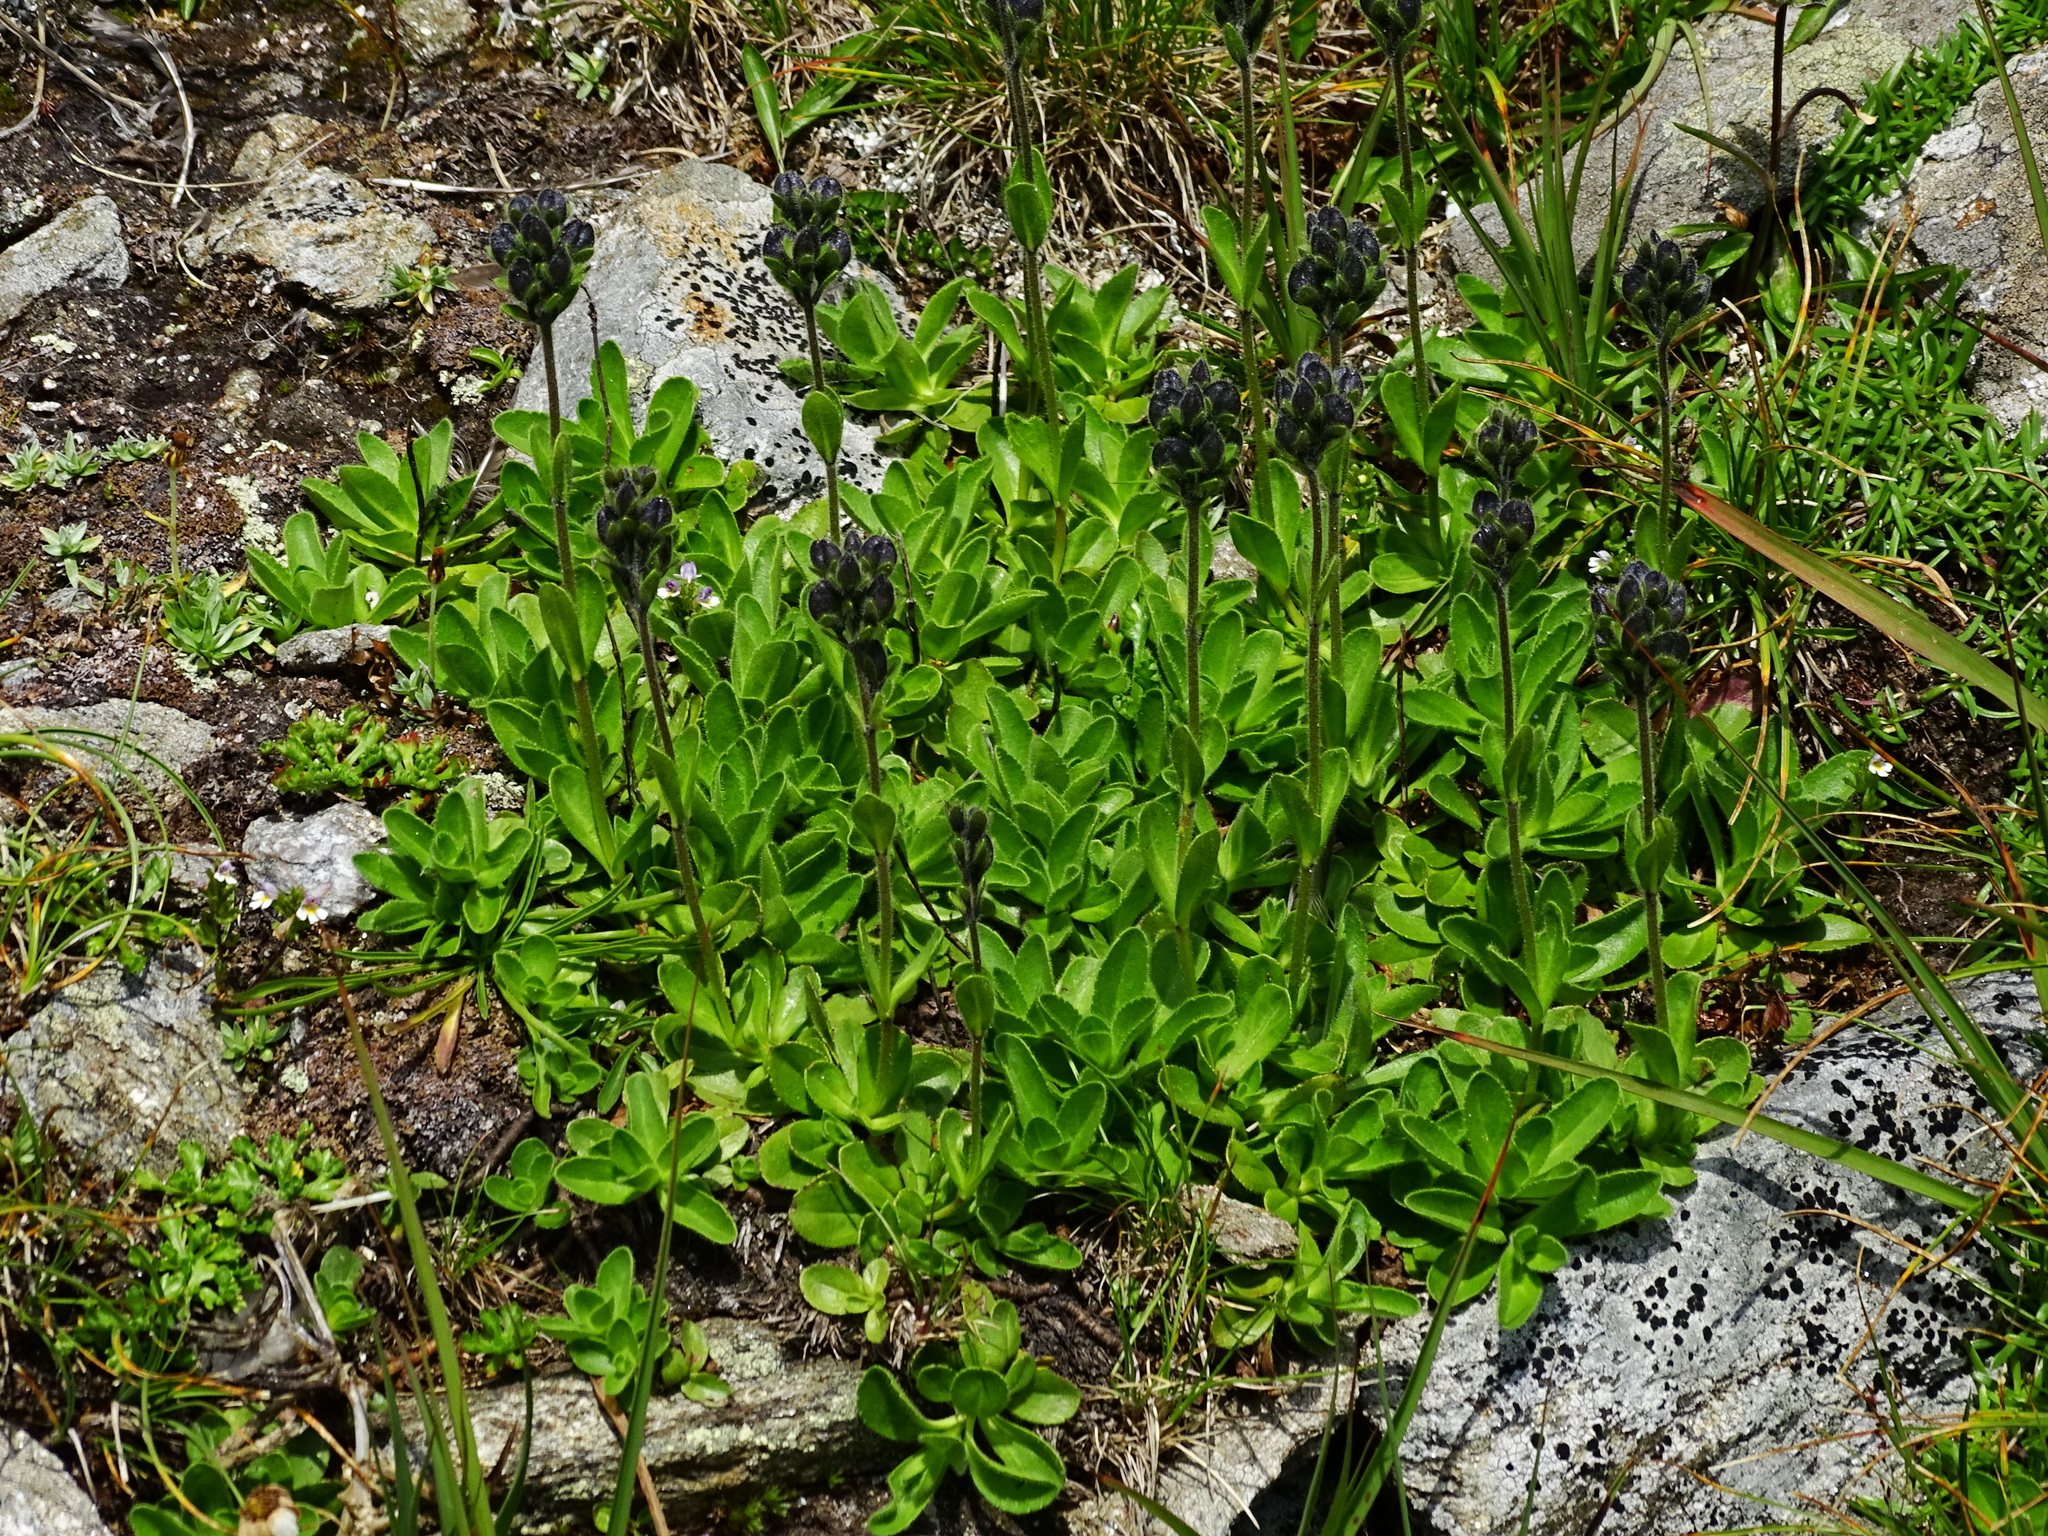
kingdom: Plantae
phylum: Tracheophyta
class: Magnoliopsida
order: Lamiales
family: Plantaginaceae
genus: Veronica
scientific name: Veronica bellidioides
